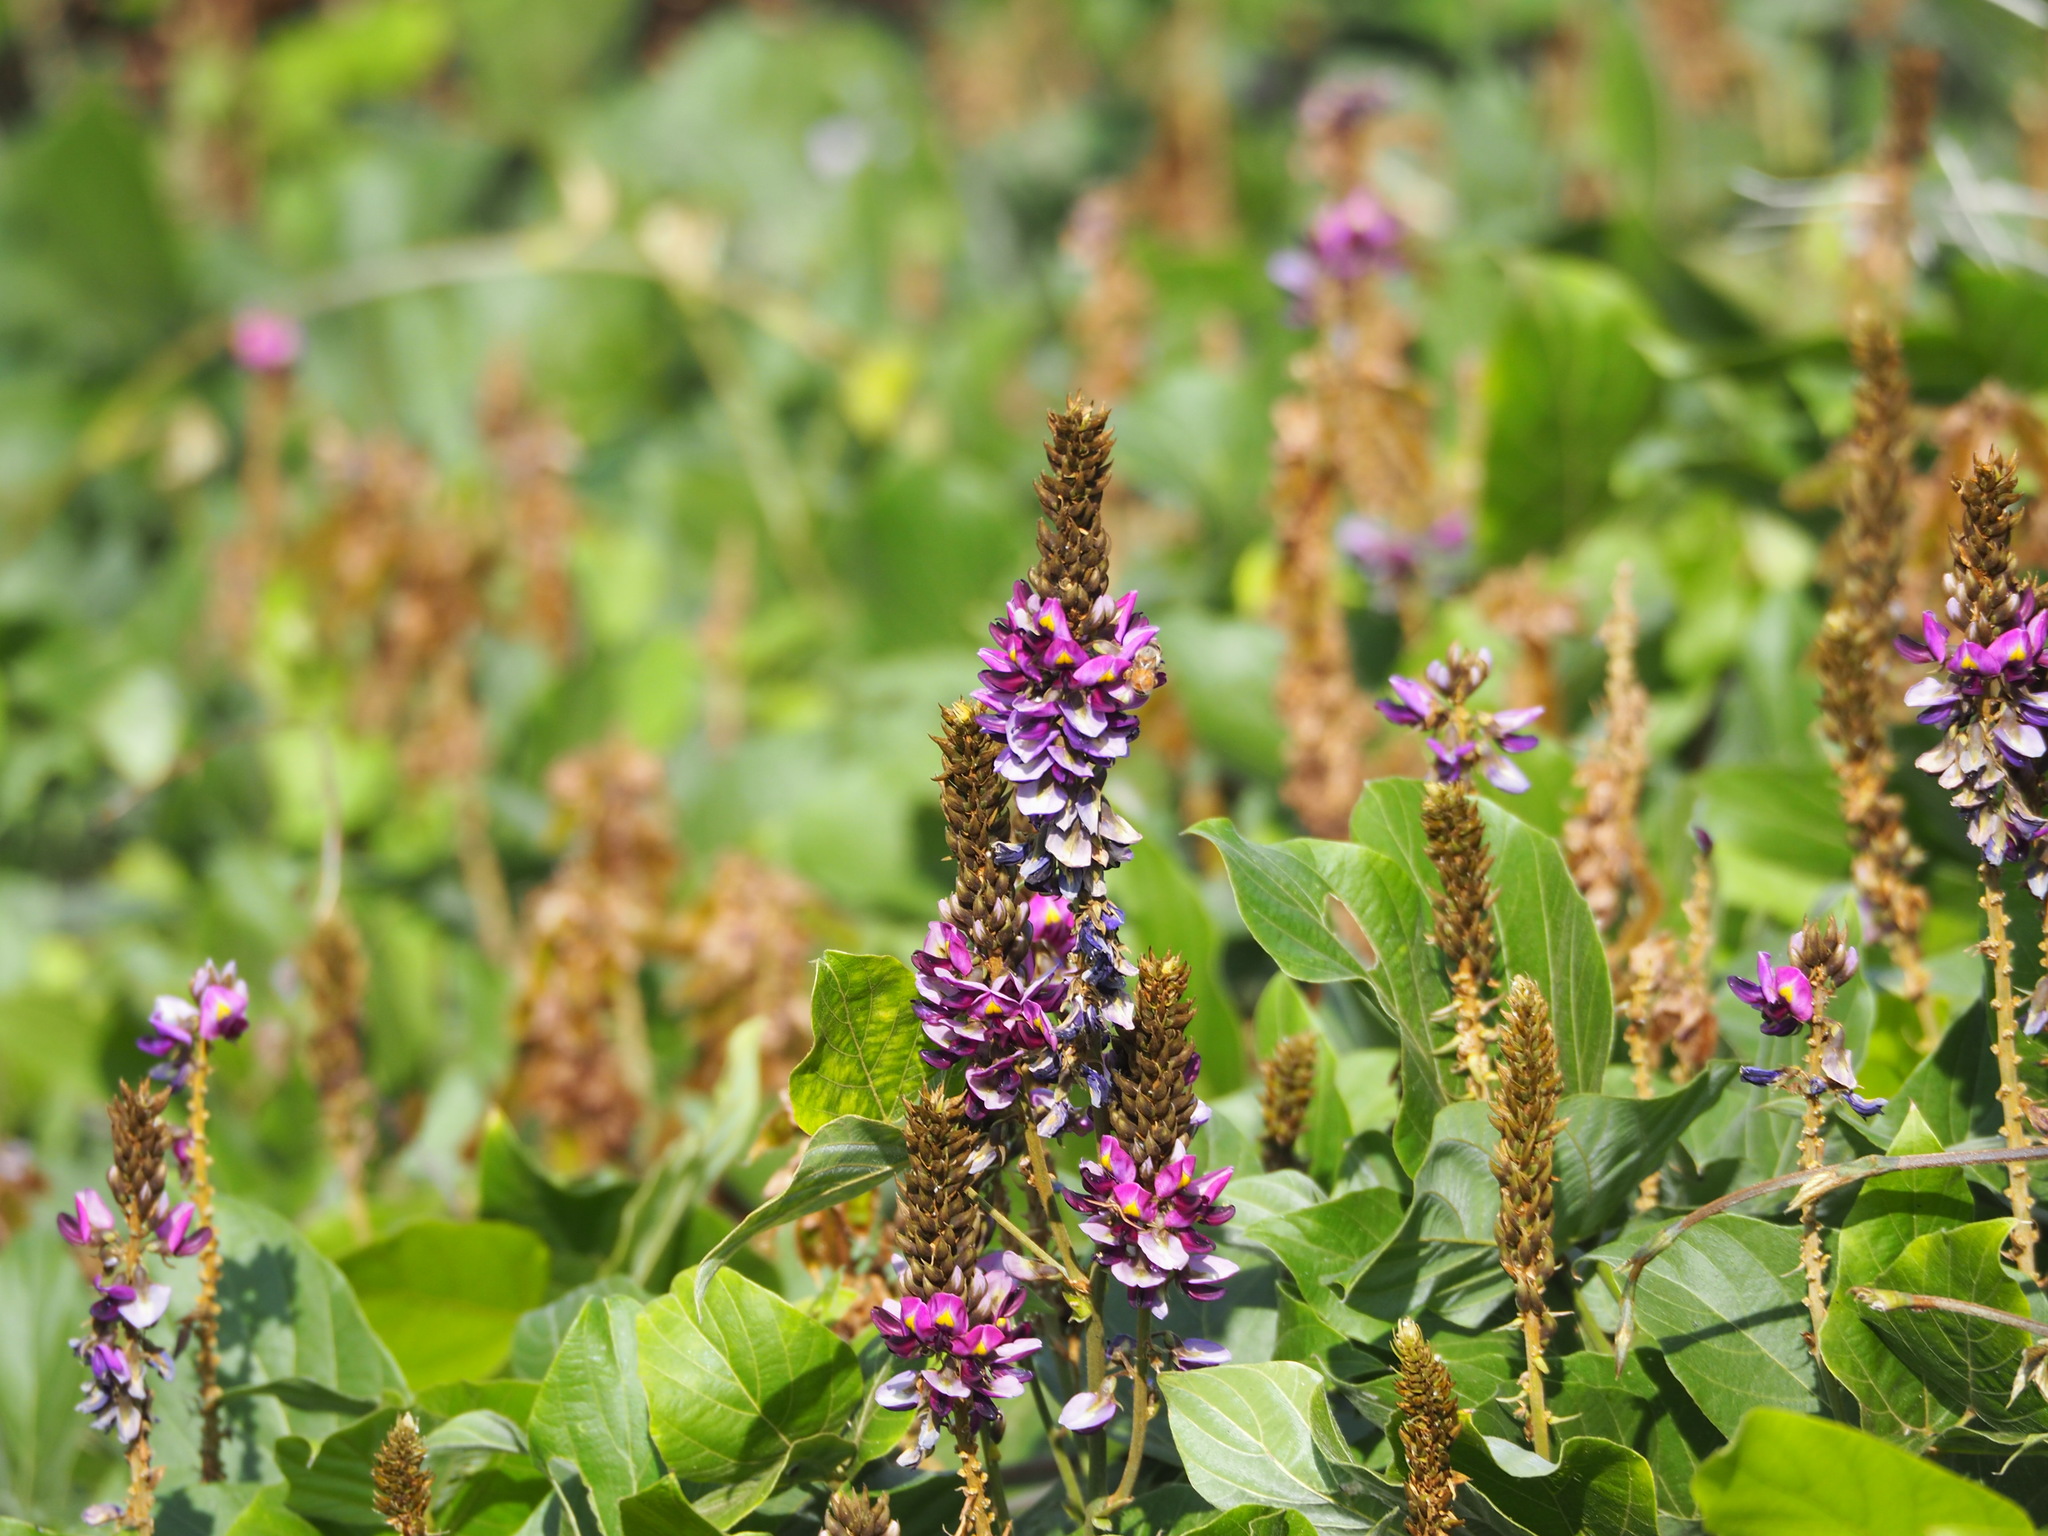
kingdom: Plantae
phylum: Tracheophyta
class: Magnoliopsida
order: Fabales
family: Fabaceae
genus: Pueraria
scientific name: Pueraria montana
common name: Kudzu
